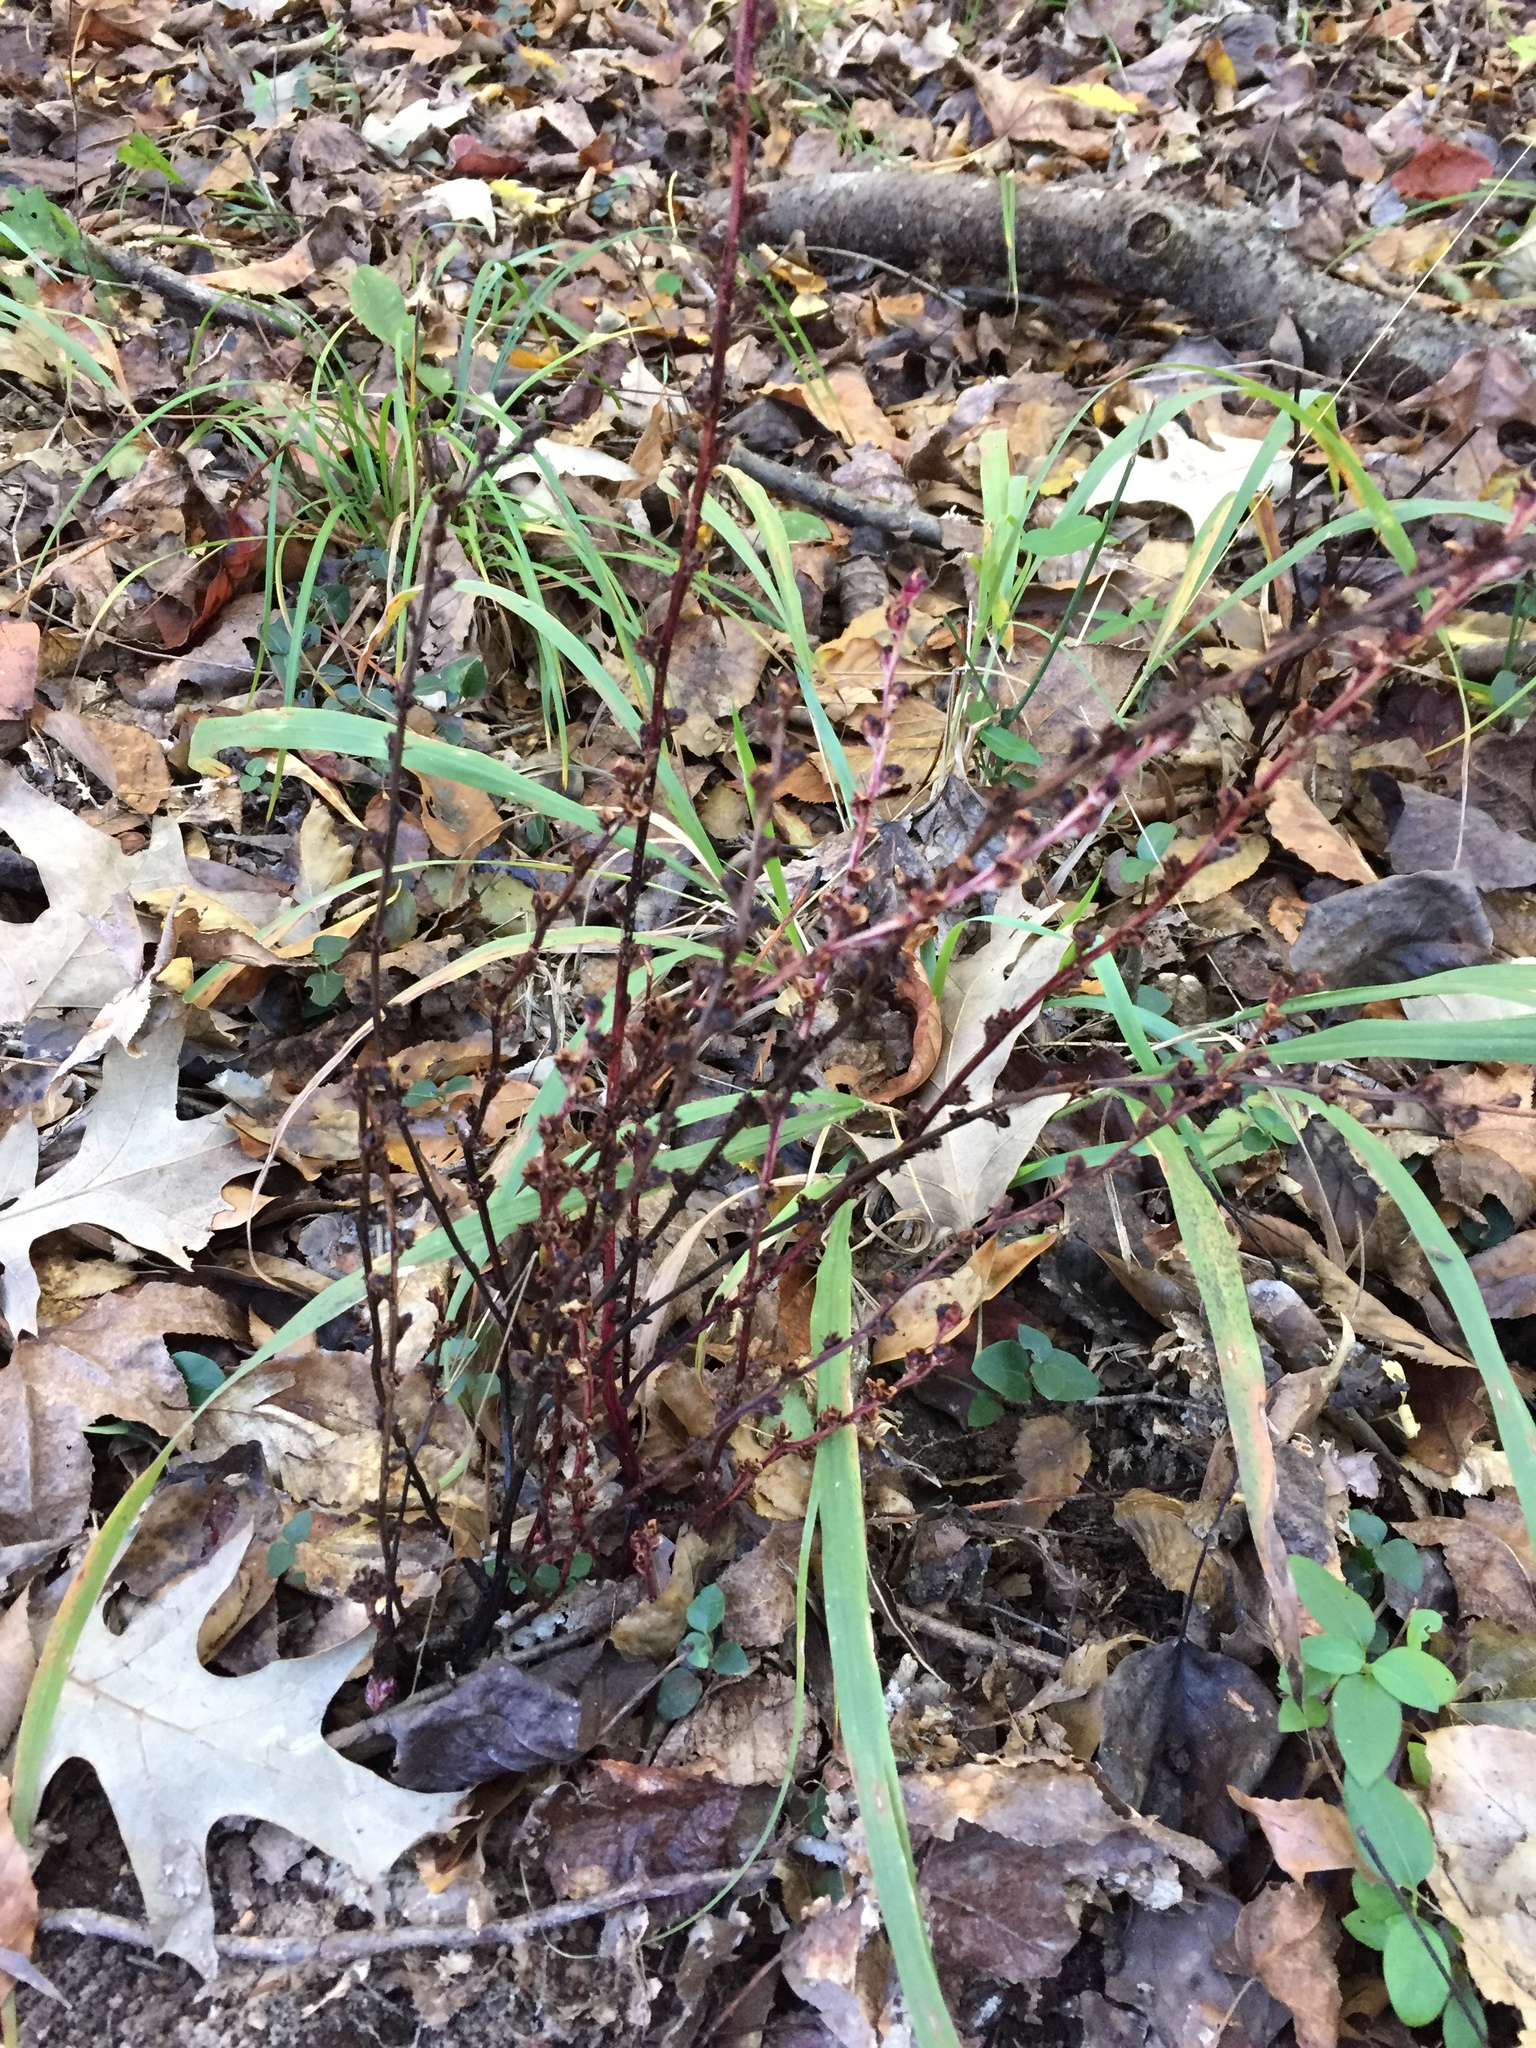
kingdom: Plantae
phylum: Tracheophyta
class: Magnoliopsida
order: Lamiales
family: Orobanchaceae
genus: Epifagus
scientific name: Epifagus virginiana
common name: Beechdrops
